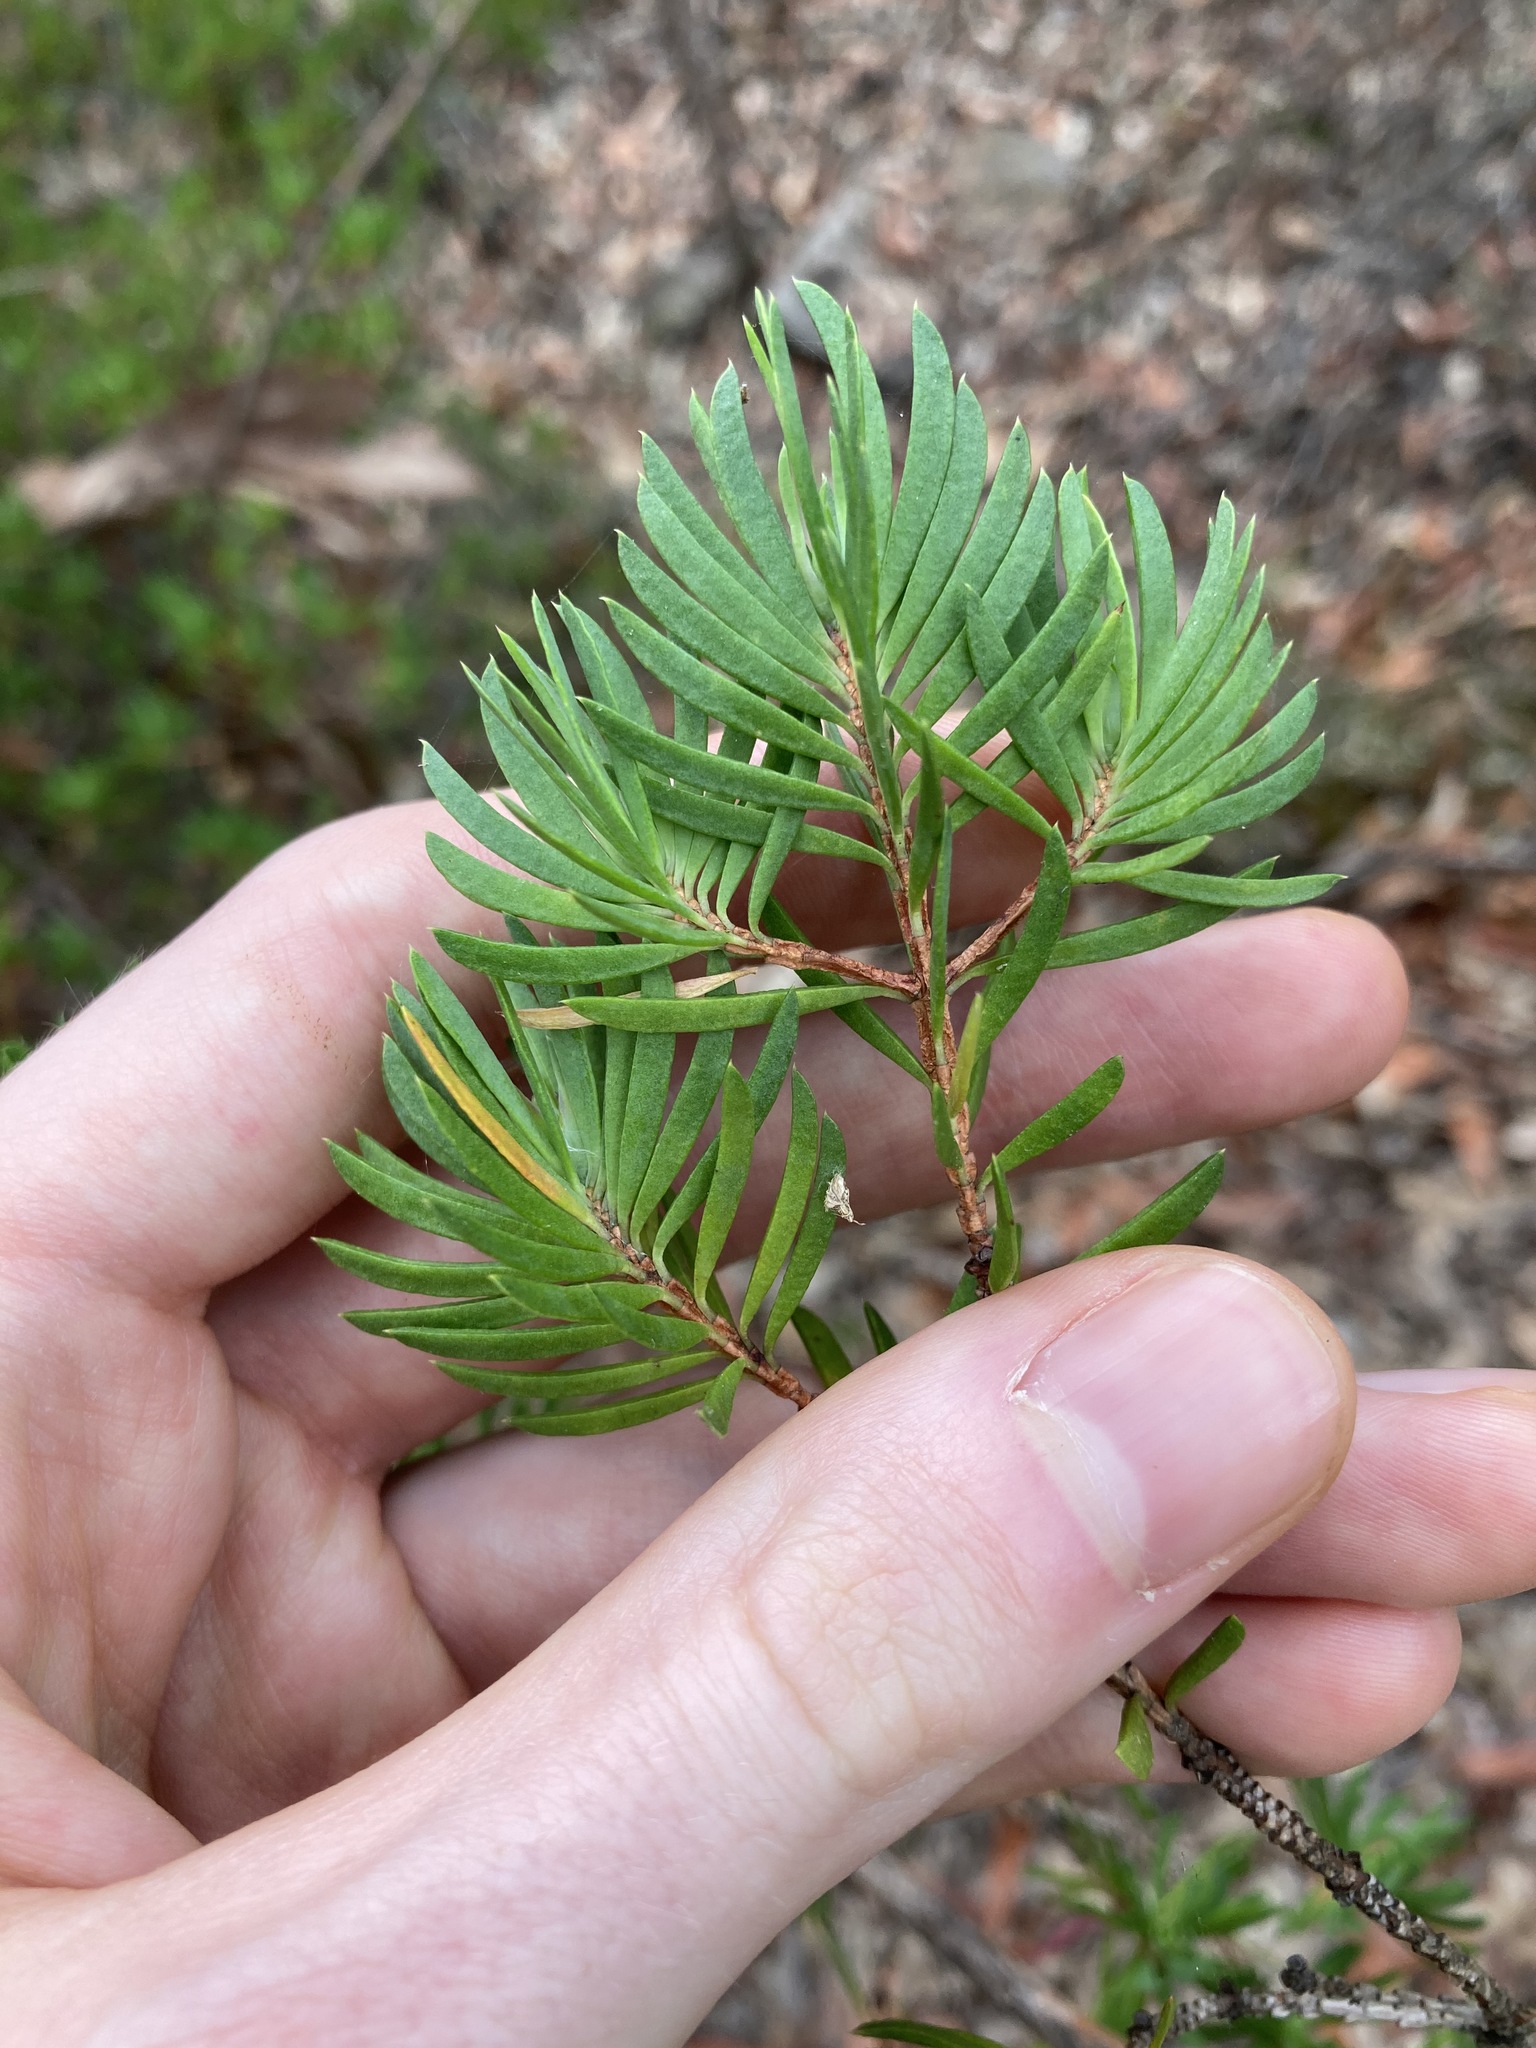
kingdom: Plantae
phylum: Tracheophyta
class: Magnoliopsida
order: Myrtales
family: Myrtaceae
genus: Darwinia
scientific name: Darwinia procera
